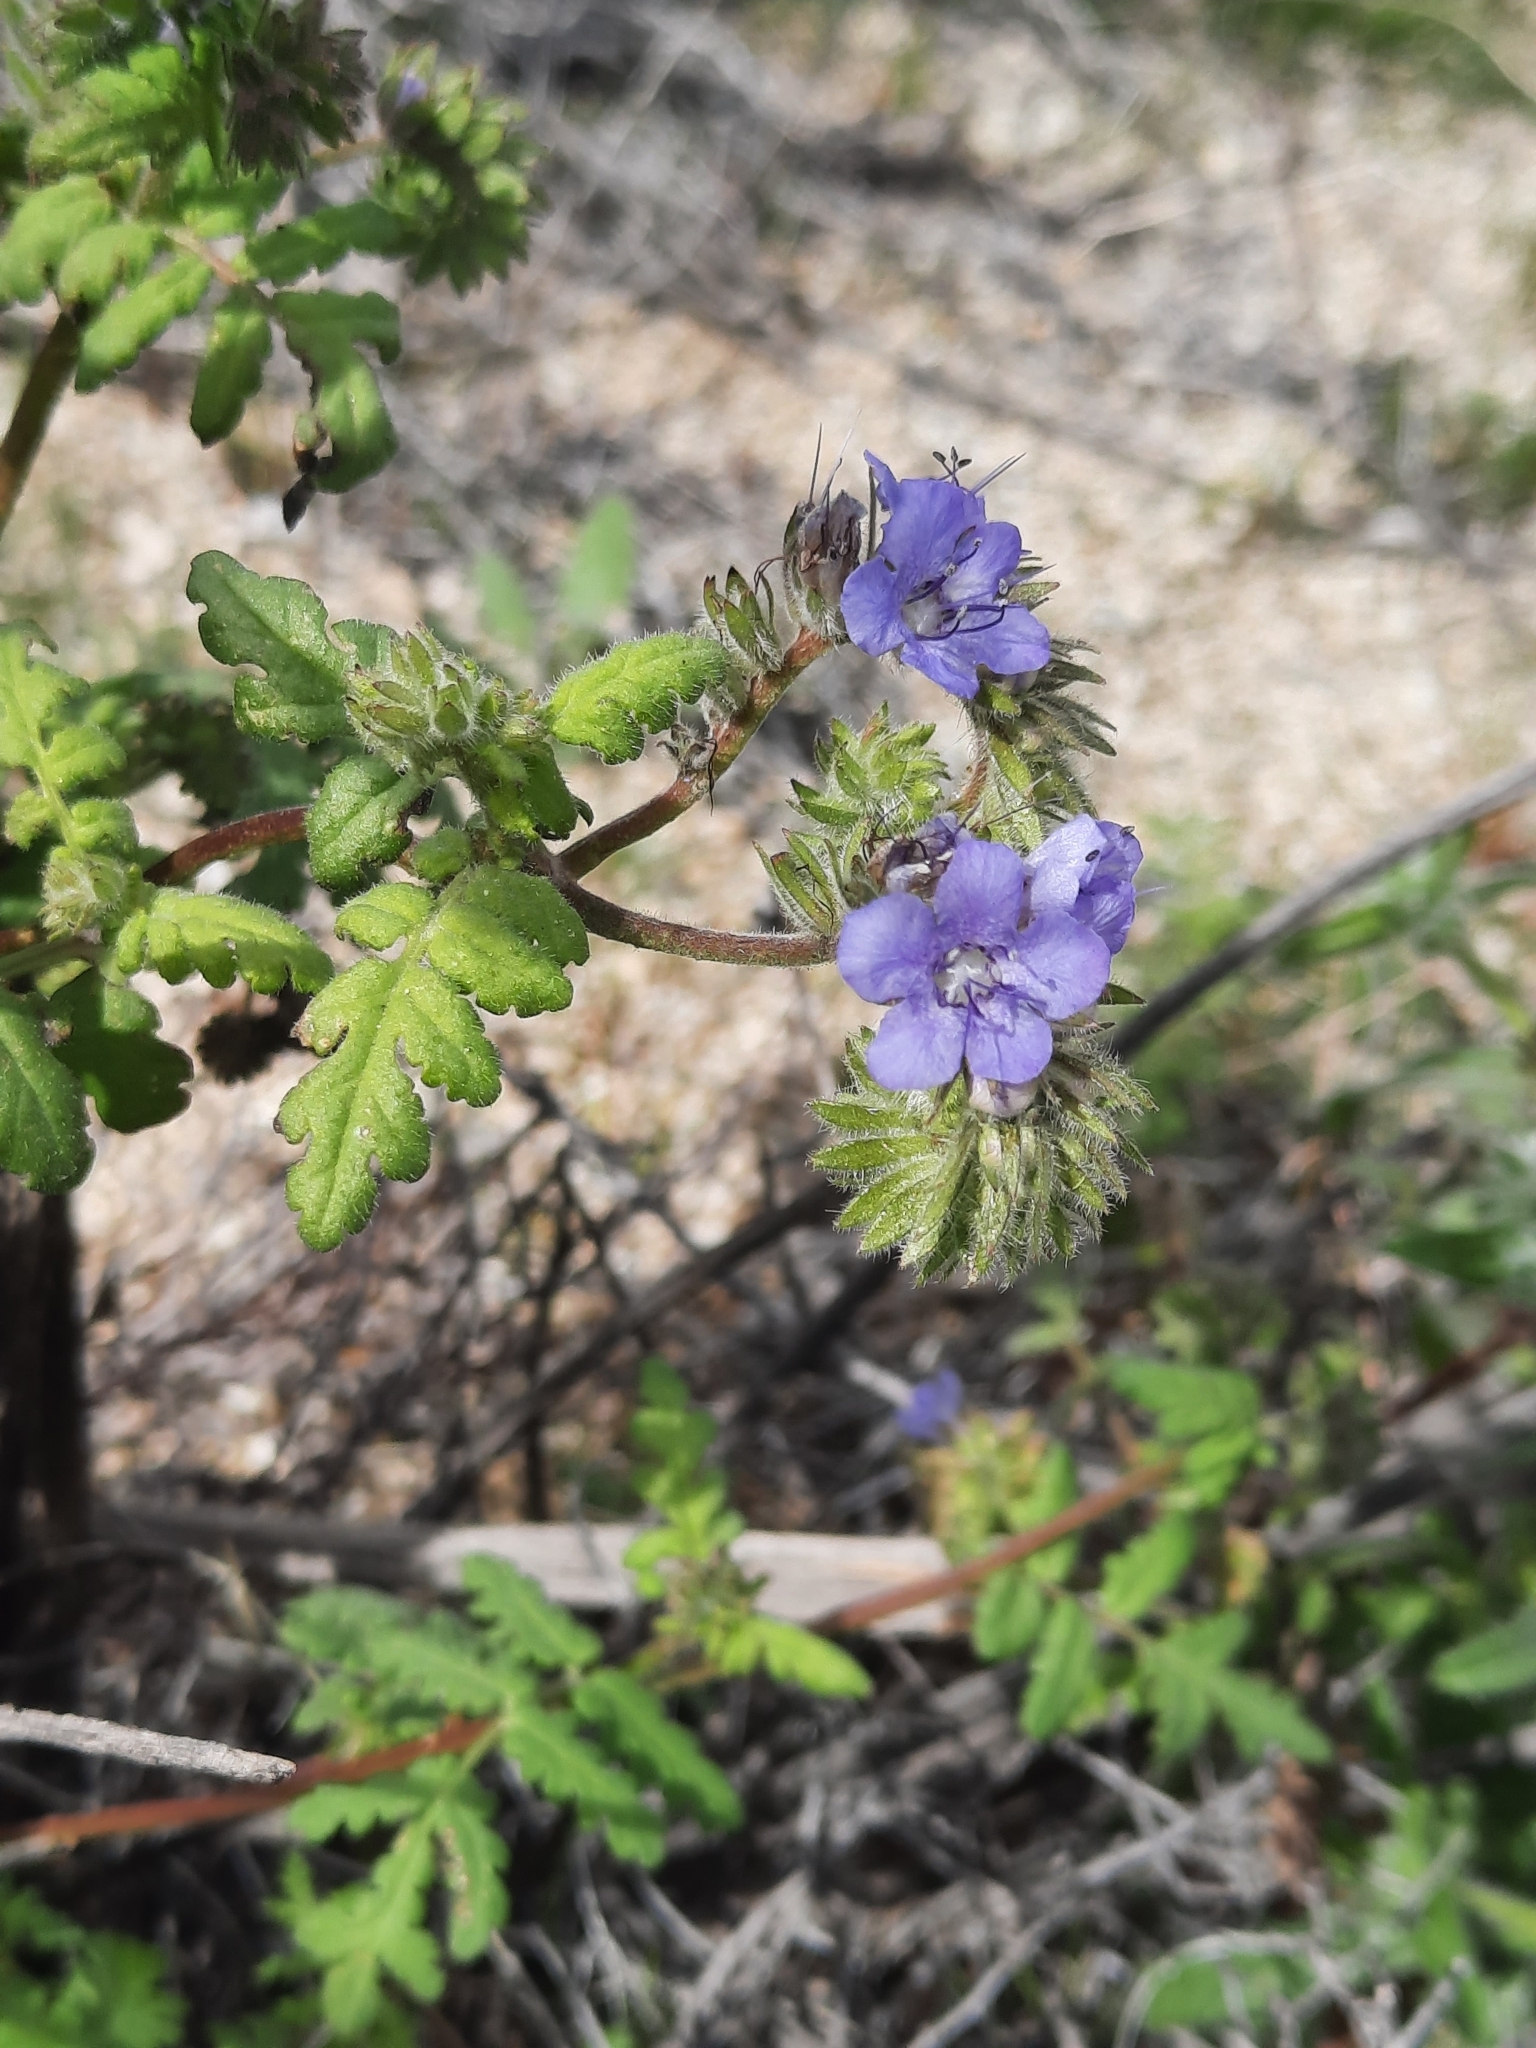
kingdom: Plantae
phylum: Tracheophyta
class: Magnoliopsida
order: Boraginales
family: Hydrophyllaceae
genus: Phacelia
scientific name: Phacelia distans
